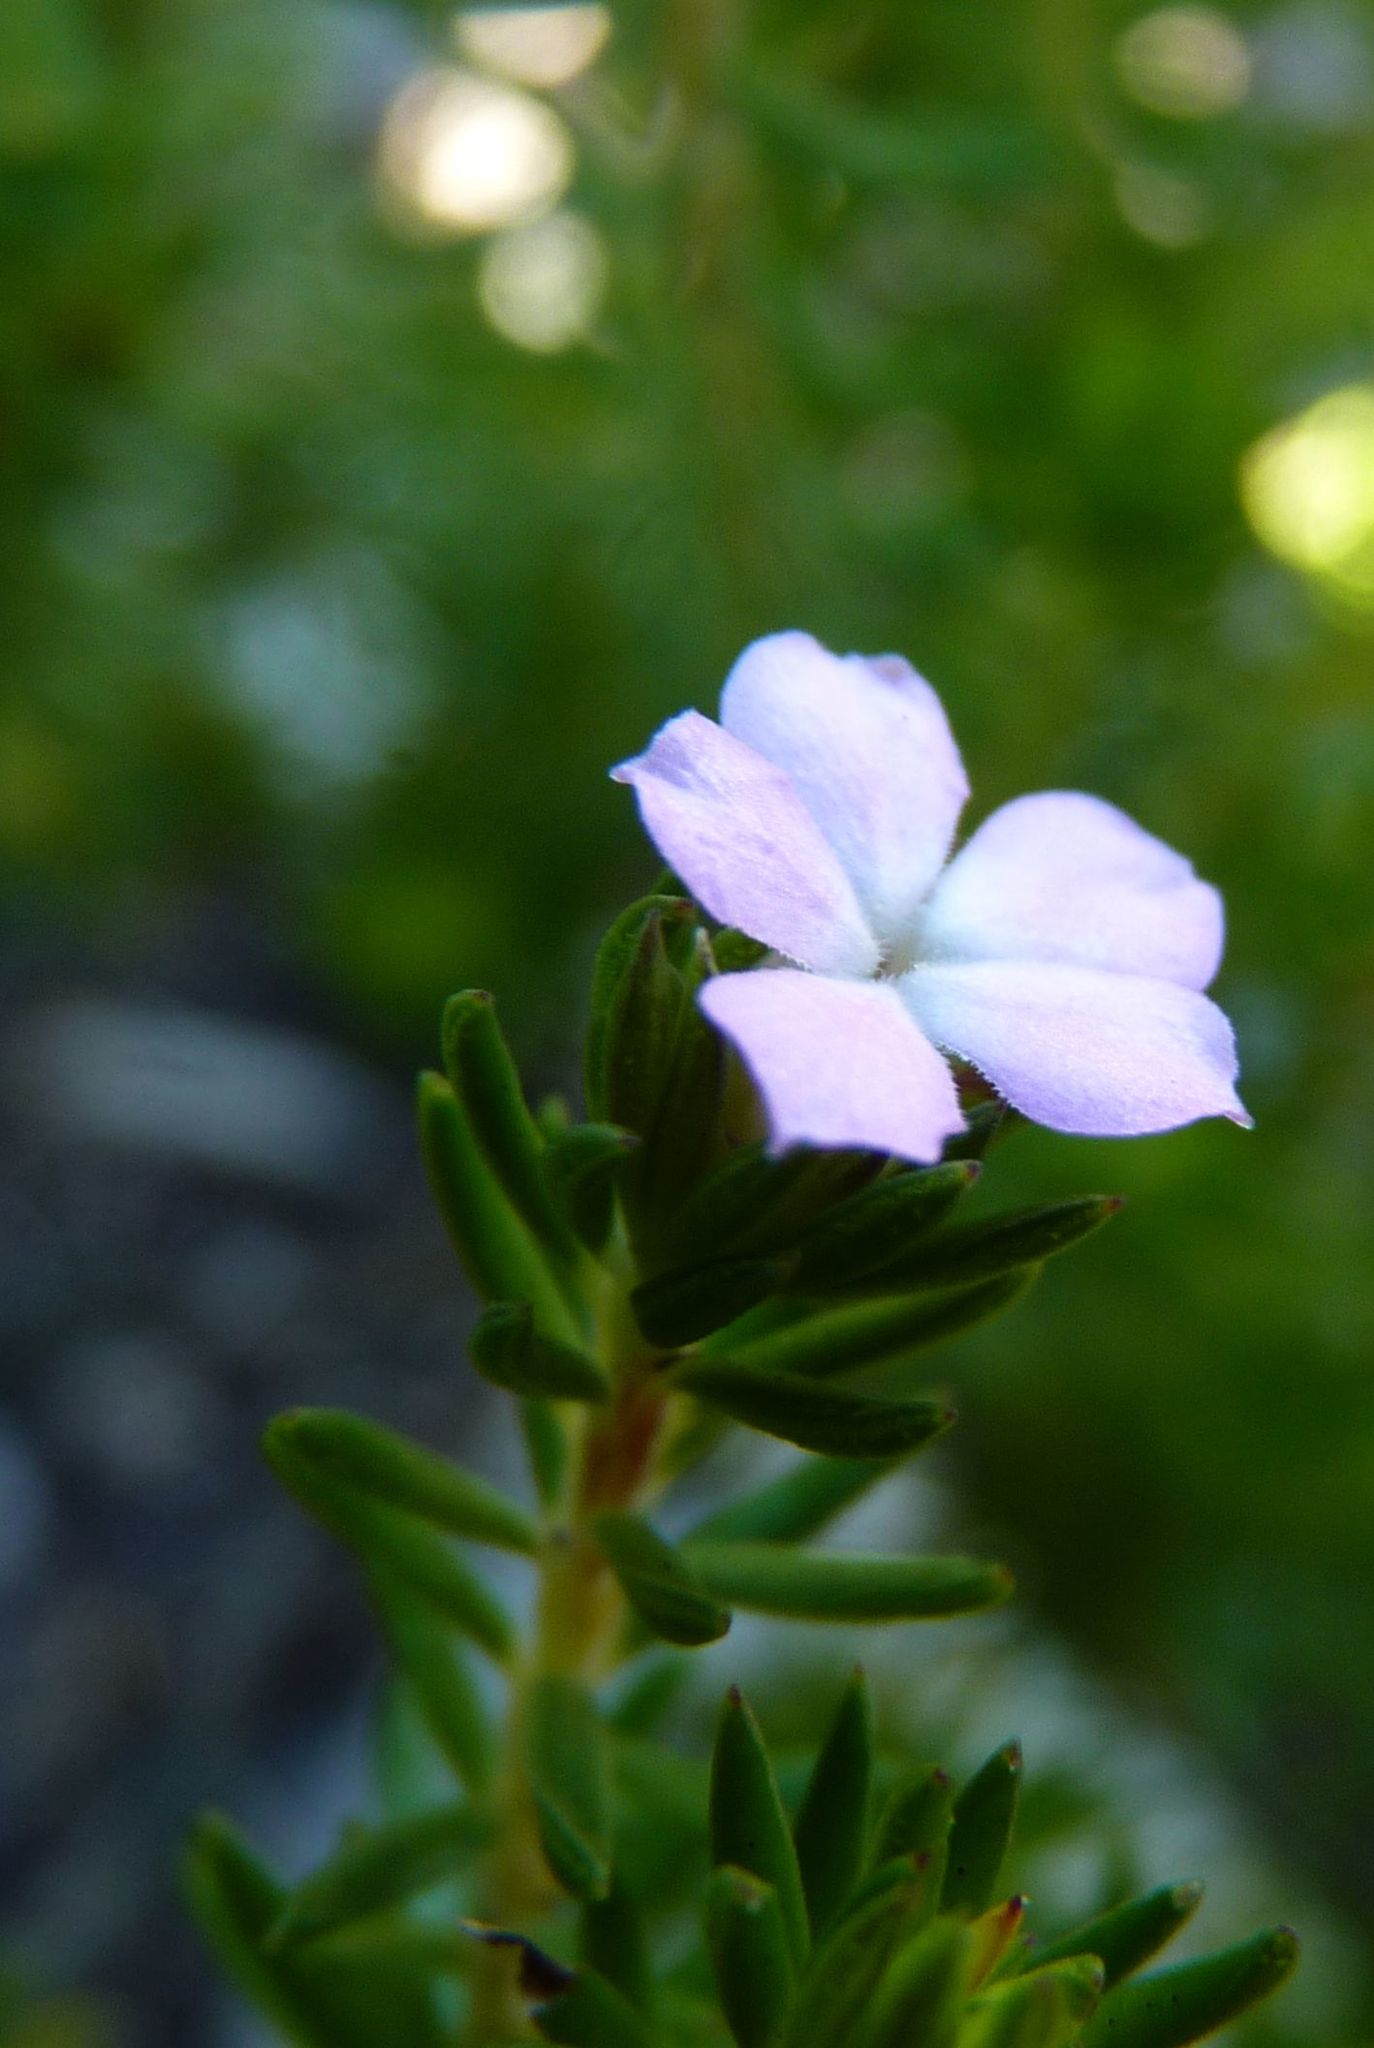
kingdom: Plantae
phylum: Tracheophyta
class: Magnoliopsida
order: Sapindales
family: Rutaceae
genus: Acmadenia
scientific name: Acmadenia alternifolia
